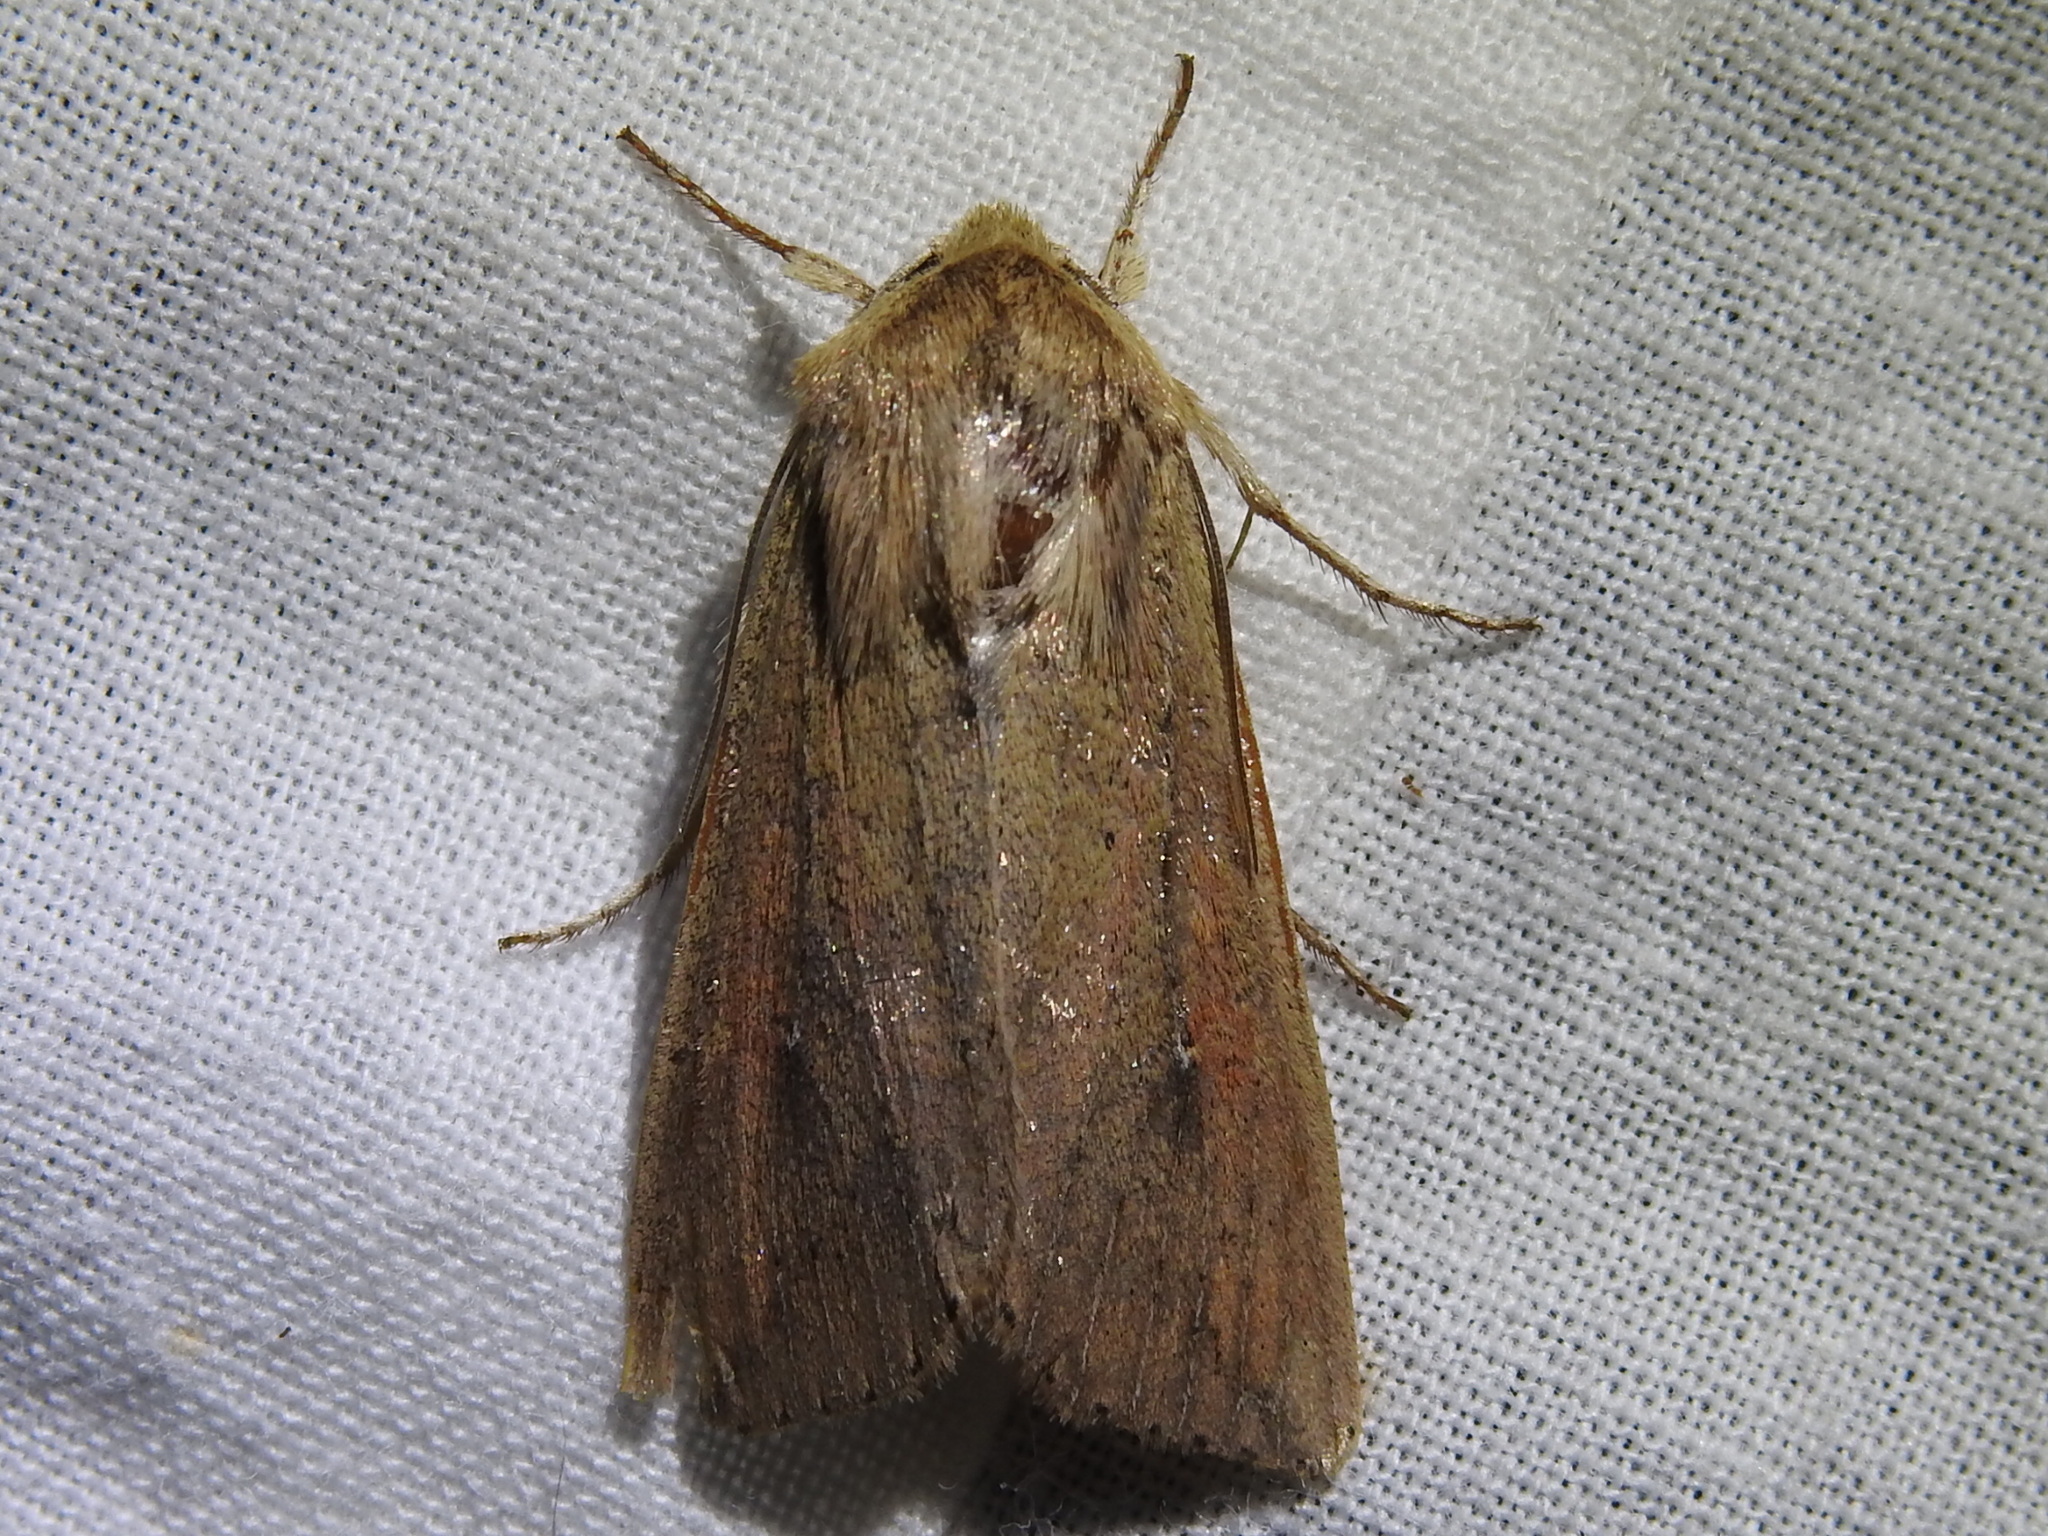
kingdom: Animalia
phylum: Arthropoda
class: Insecta
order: Lepidoptera
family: Noctuidae
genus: Mythimna
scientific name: Mythimna unipuncta
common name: White-speck
